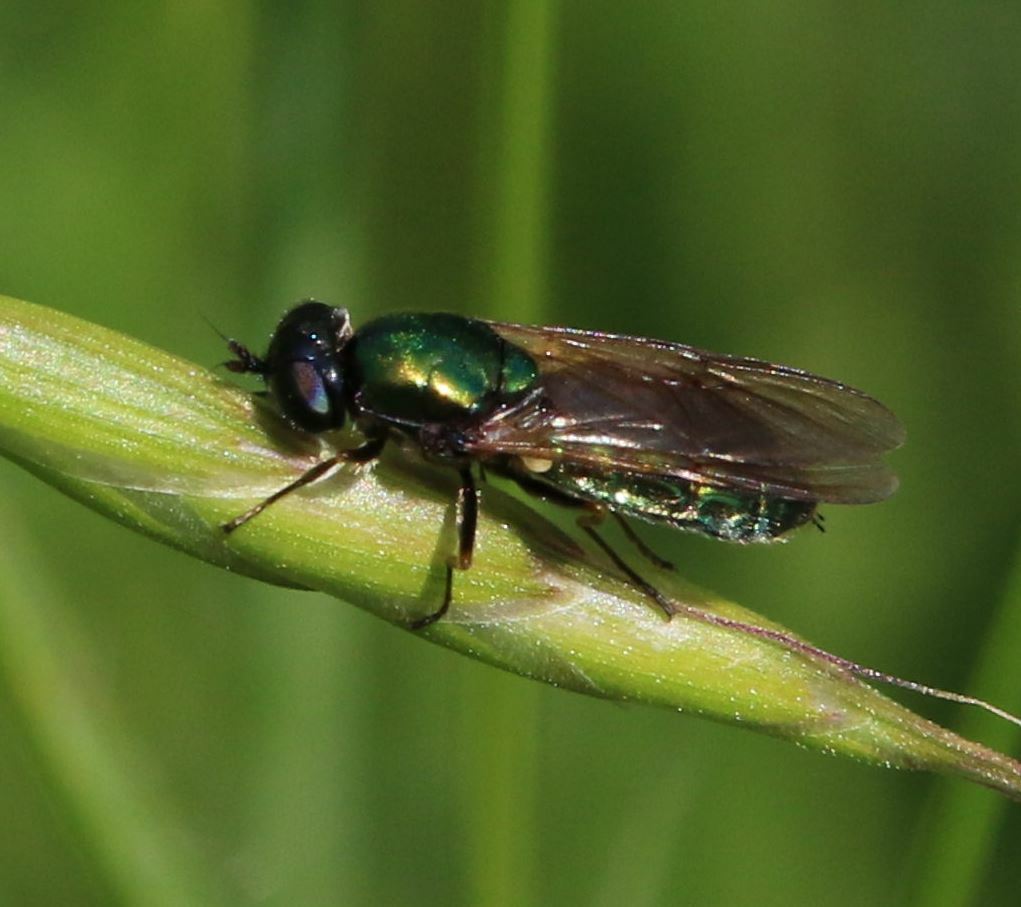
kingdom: Animalia
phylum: Arthropoda
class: Insecta
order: Diptera
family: Stratiomyidae
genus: Chloromyia
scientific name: Chloromyia formosa
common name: Soldier fly
